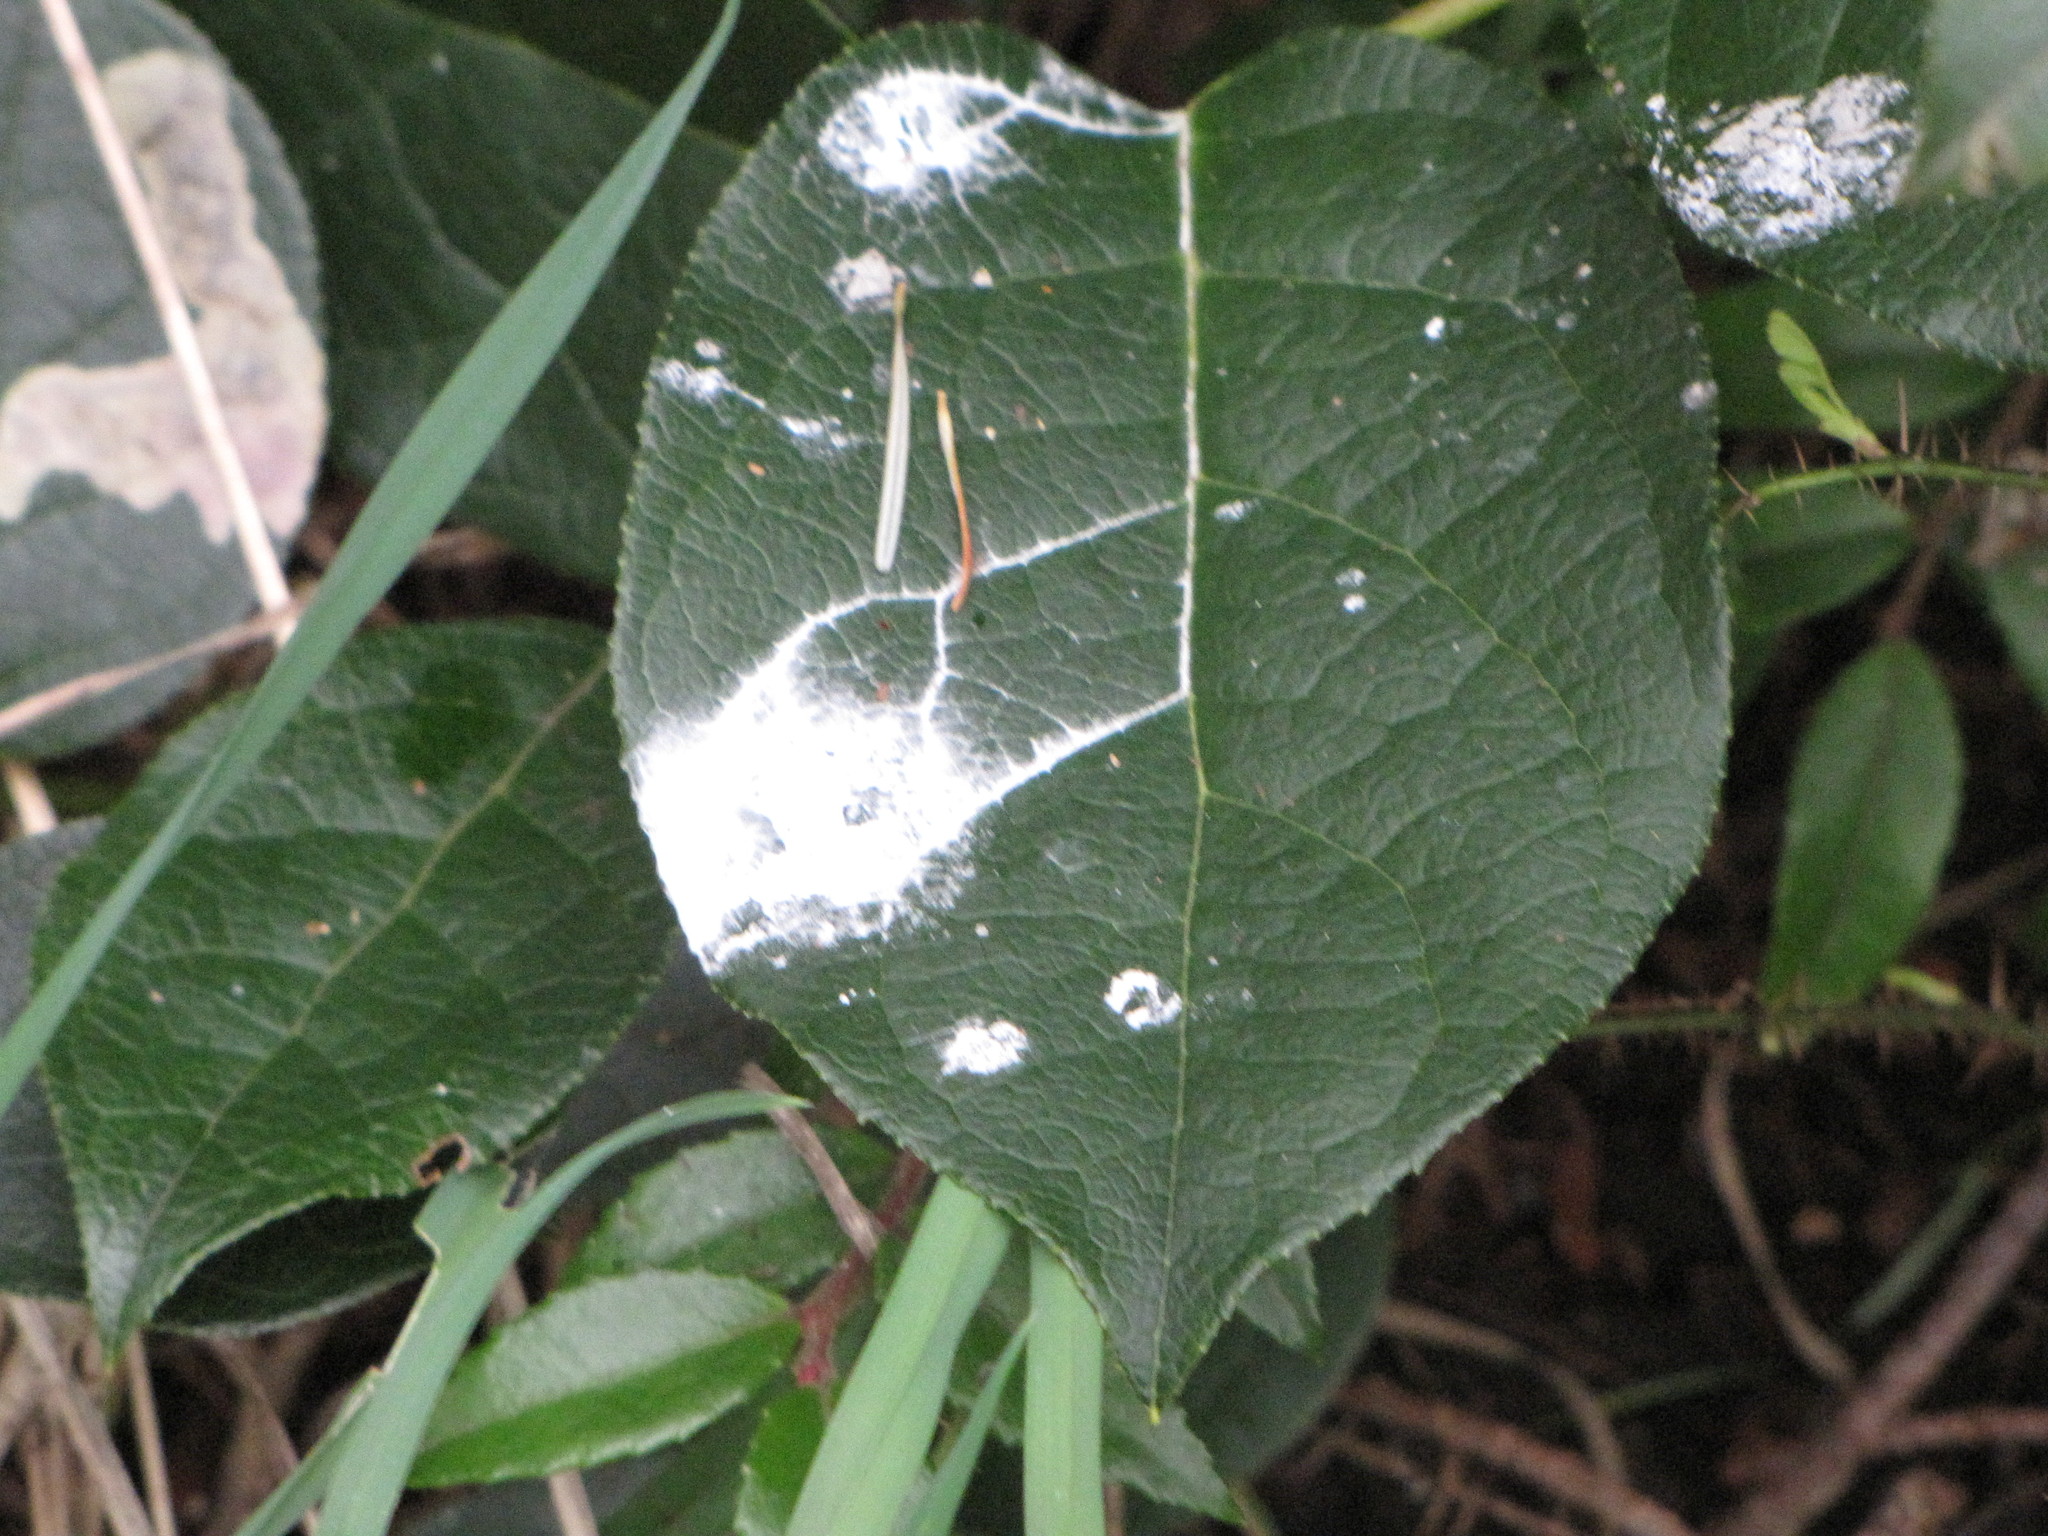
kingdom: Plantae
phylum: Tracheophyta
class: Magnoliopsida
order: Ericales
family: Ericaceae
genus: Gaultheria
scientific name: Gaultheria shallon
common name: Shallon
